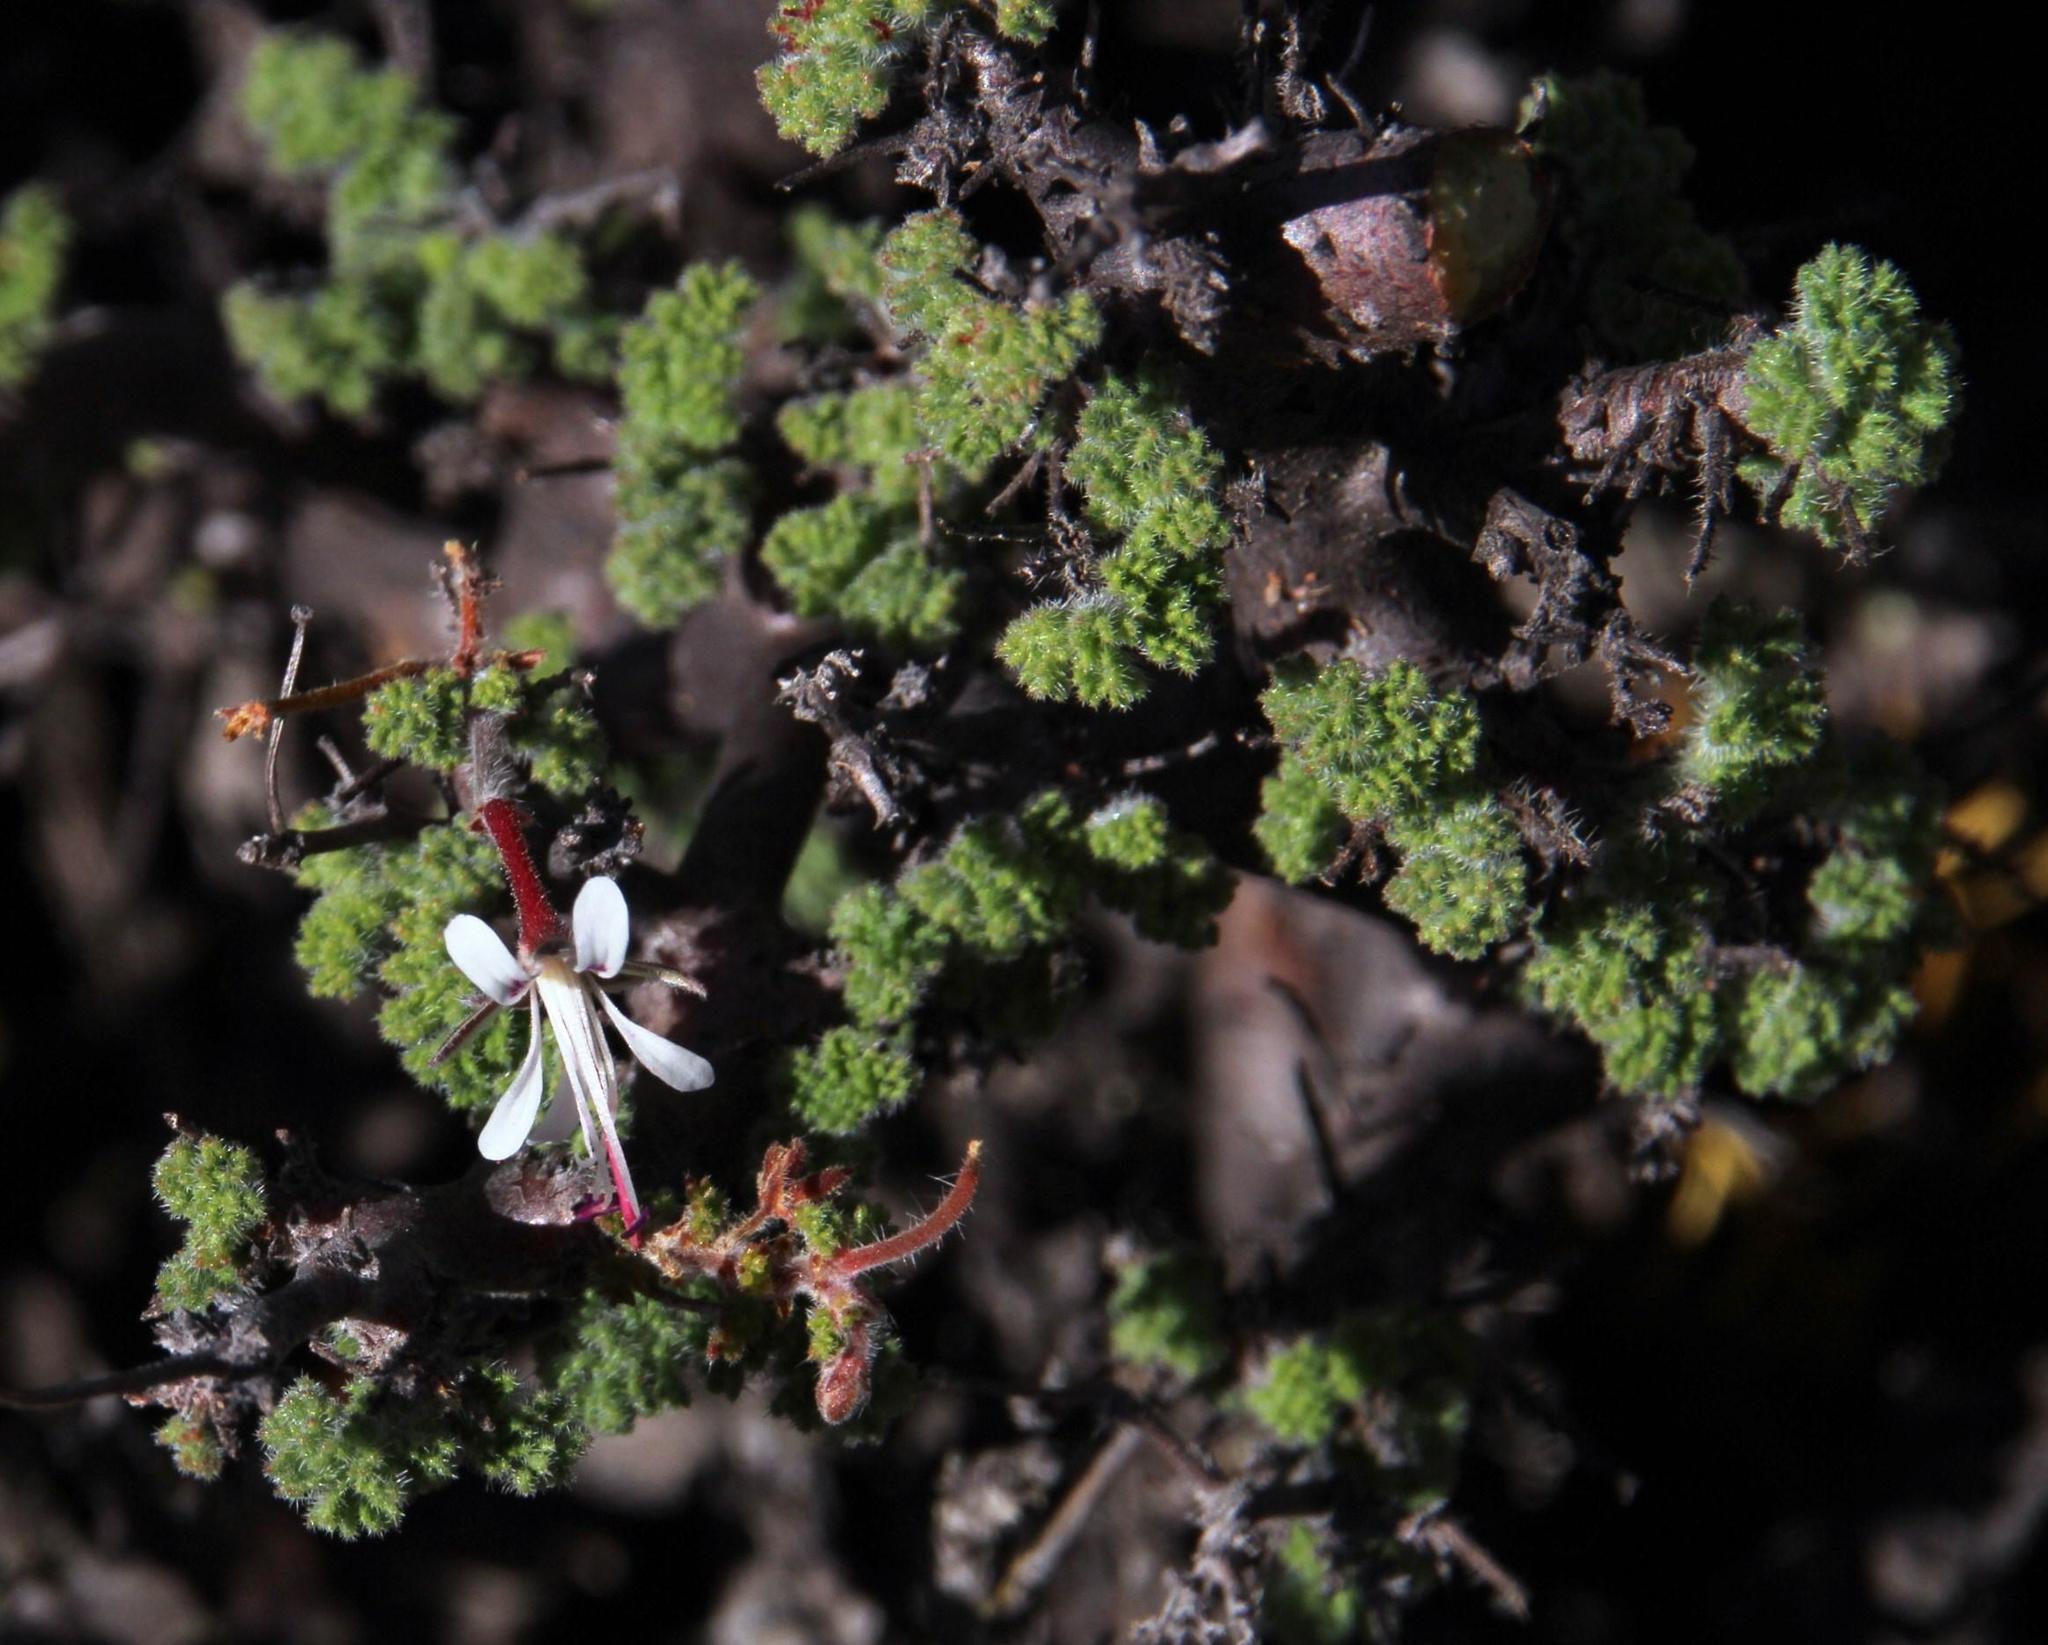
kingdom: Plantae
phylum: Tracheophyta
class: Magnoliopsida
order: Geraniales
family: Geraniaceae
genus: Pelargonium
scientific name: Pelargonium alternans
